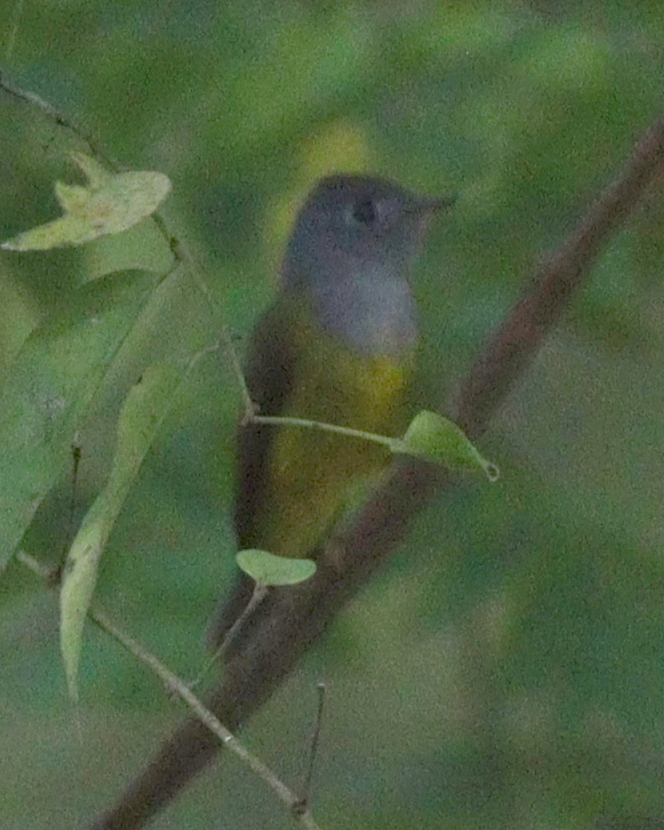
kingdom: Animalia
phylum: Chordata
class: Aves
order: Passeriformes
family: Stenostiridae
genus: Culicicapa
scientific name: Culicicapa ceylonensis
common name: Grey-headed canary-flycatcher
